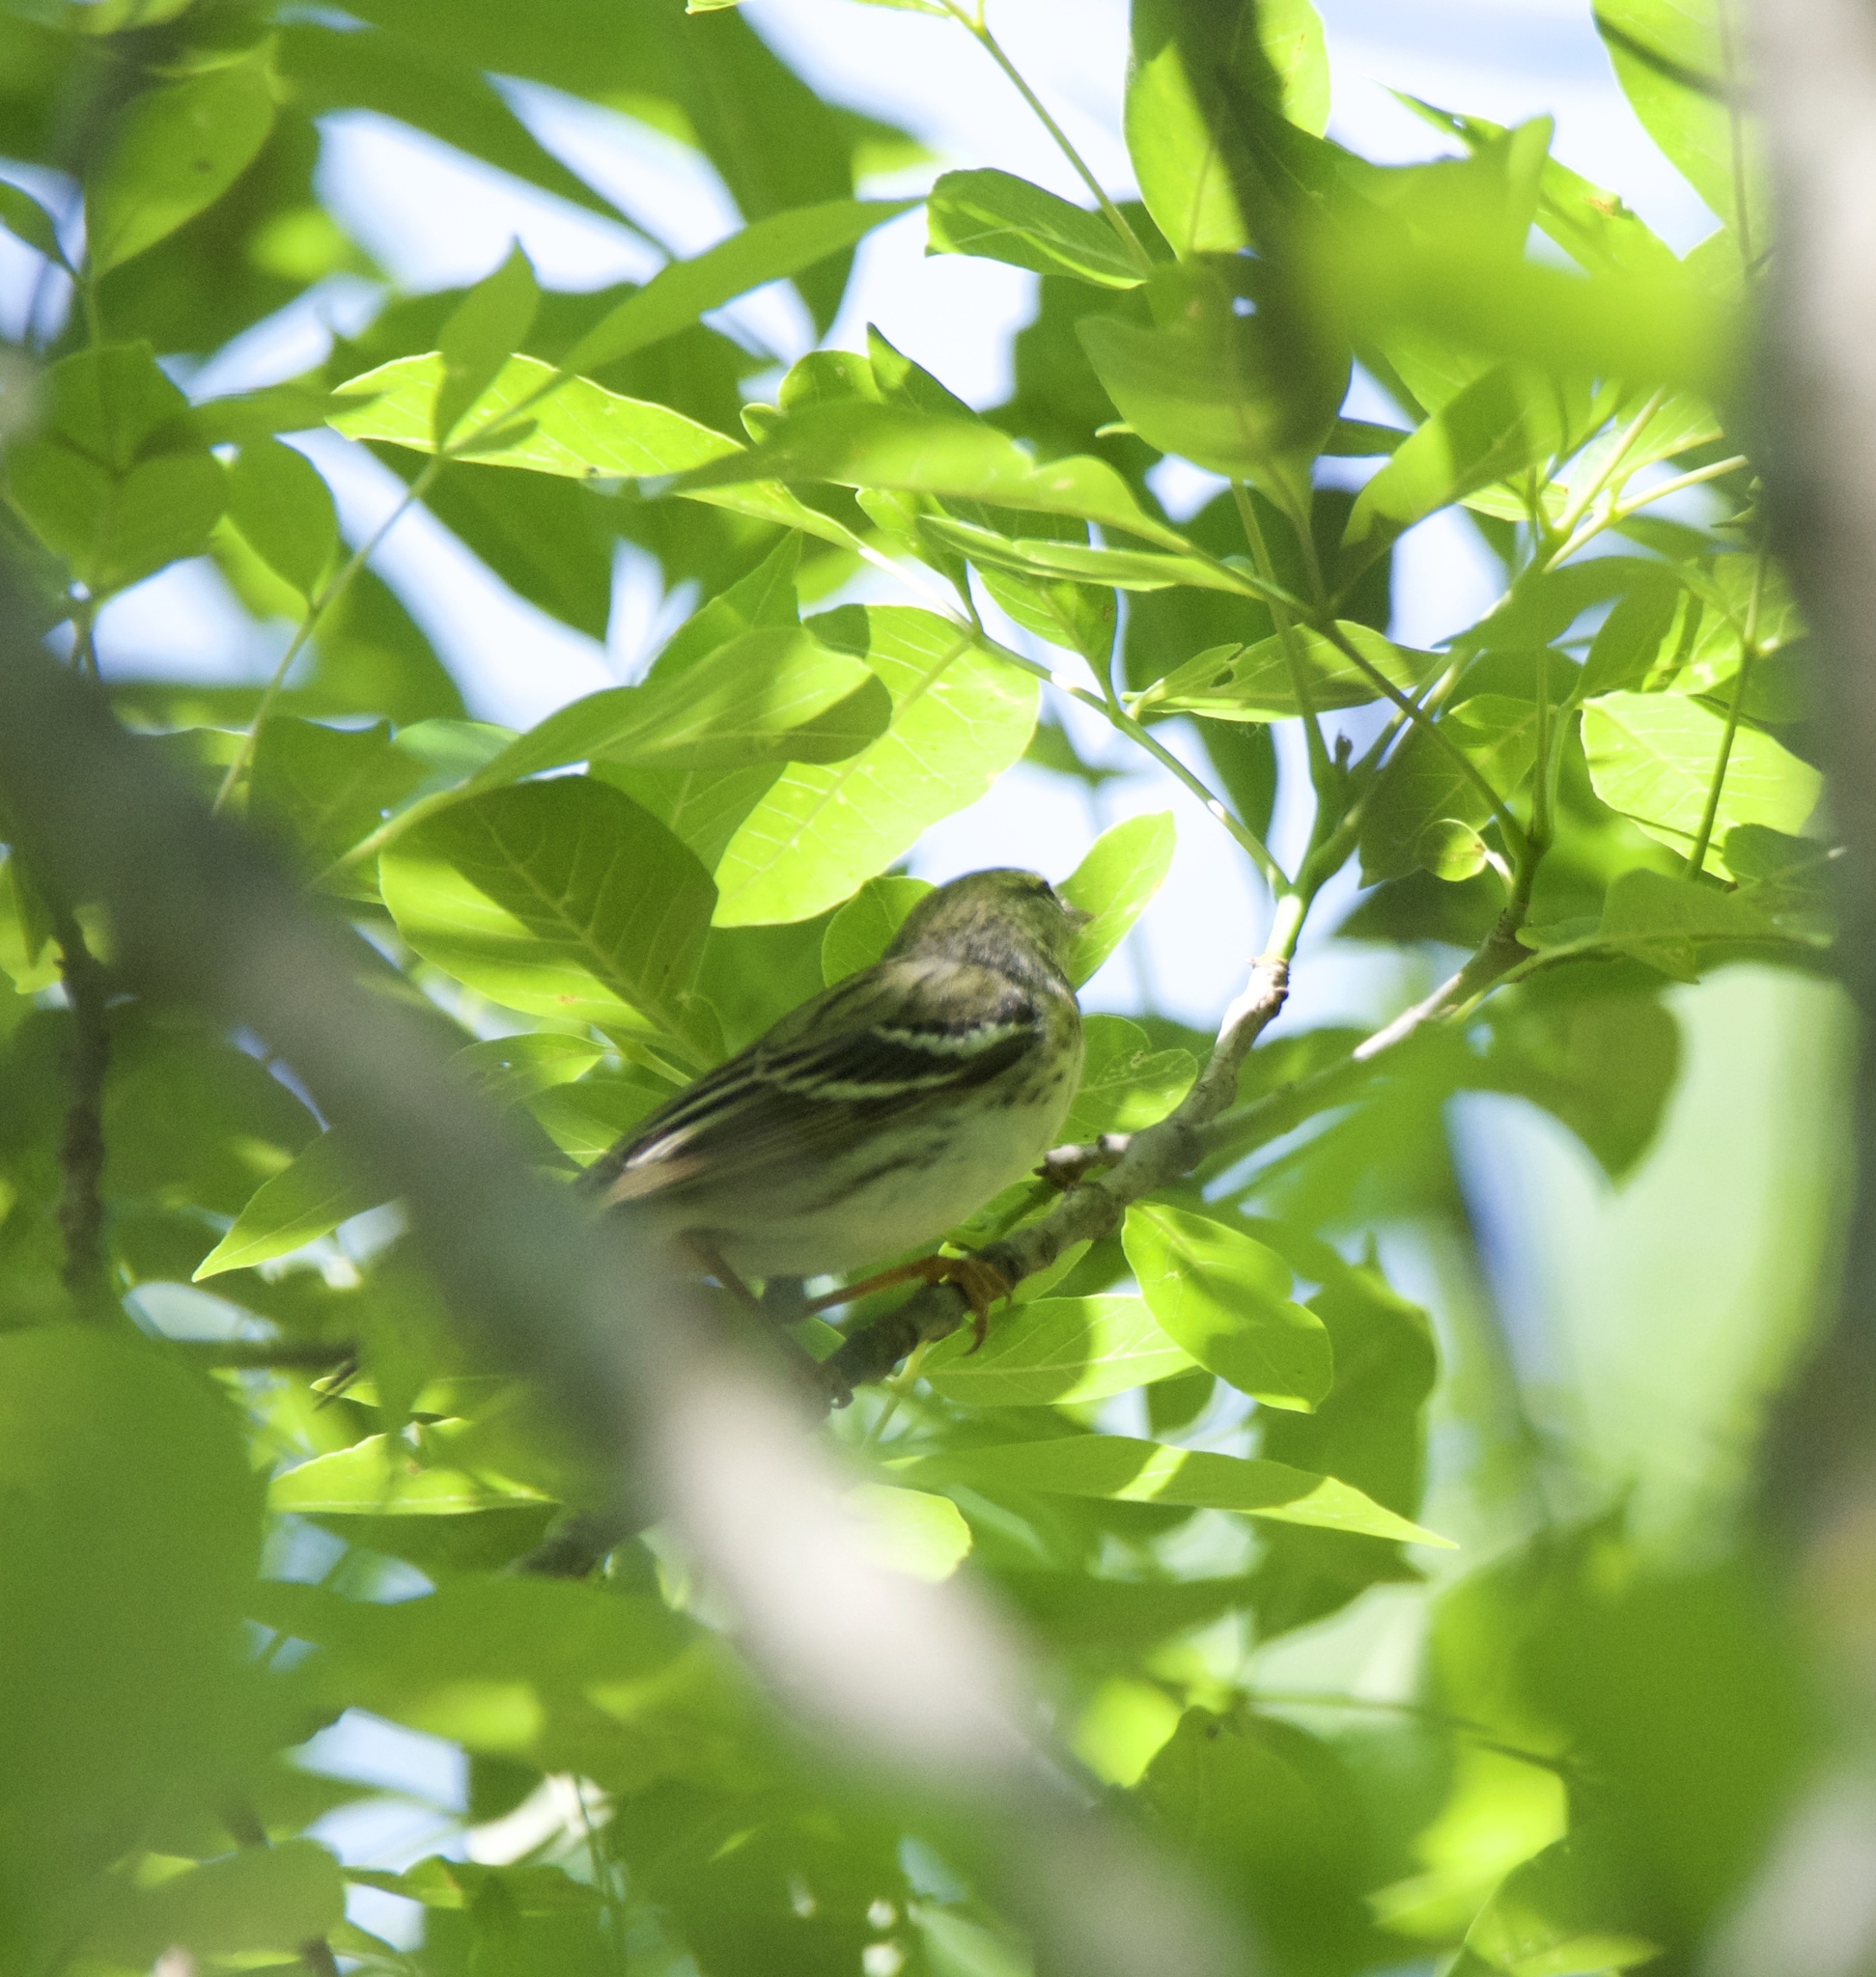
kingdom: Animalia
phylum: Chordata
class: Aves
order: Passeriformes
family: Parulidae
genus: Setophaga
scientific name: Setophaga striata
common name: Blackpoll warbler
